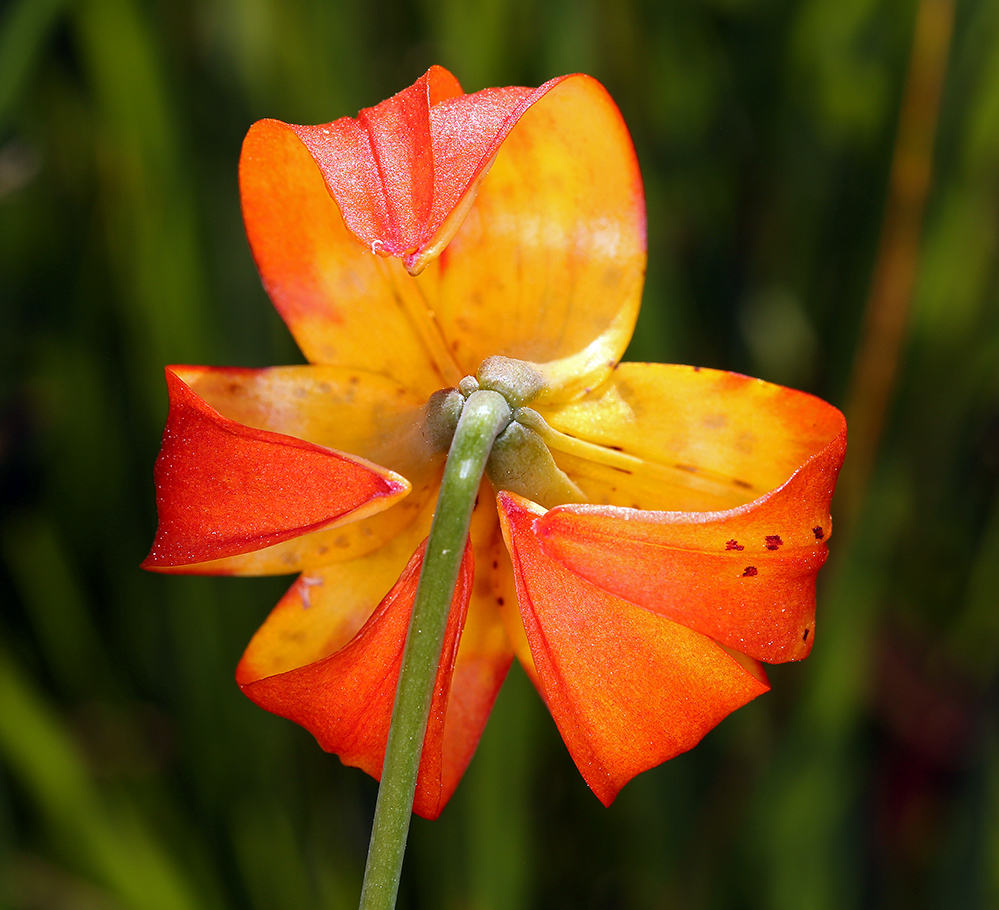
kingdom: Plantae
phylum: Tracheophyta
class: Liliopsida
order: Liliales
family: Liliaceae
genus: Lilium
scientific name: Lilium pardalinum
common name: Panther lily
